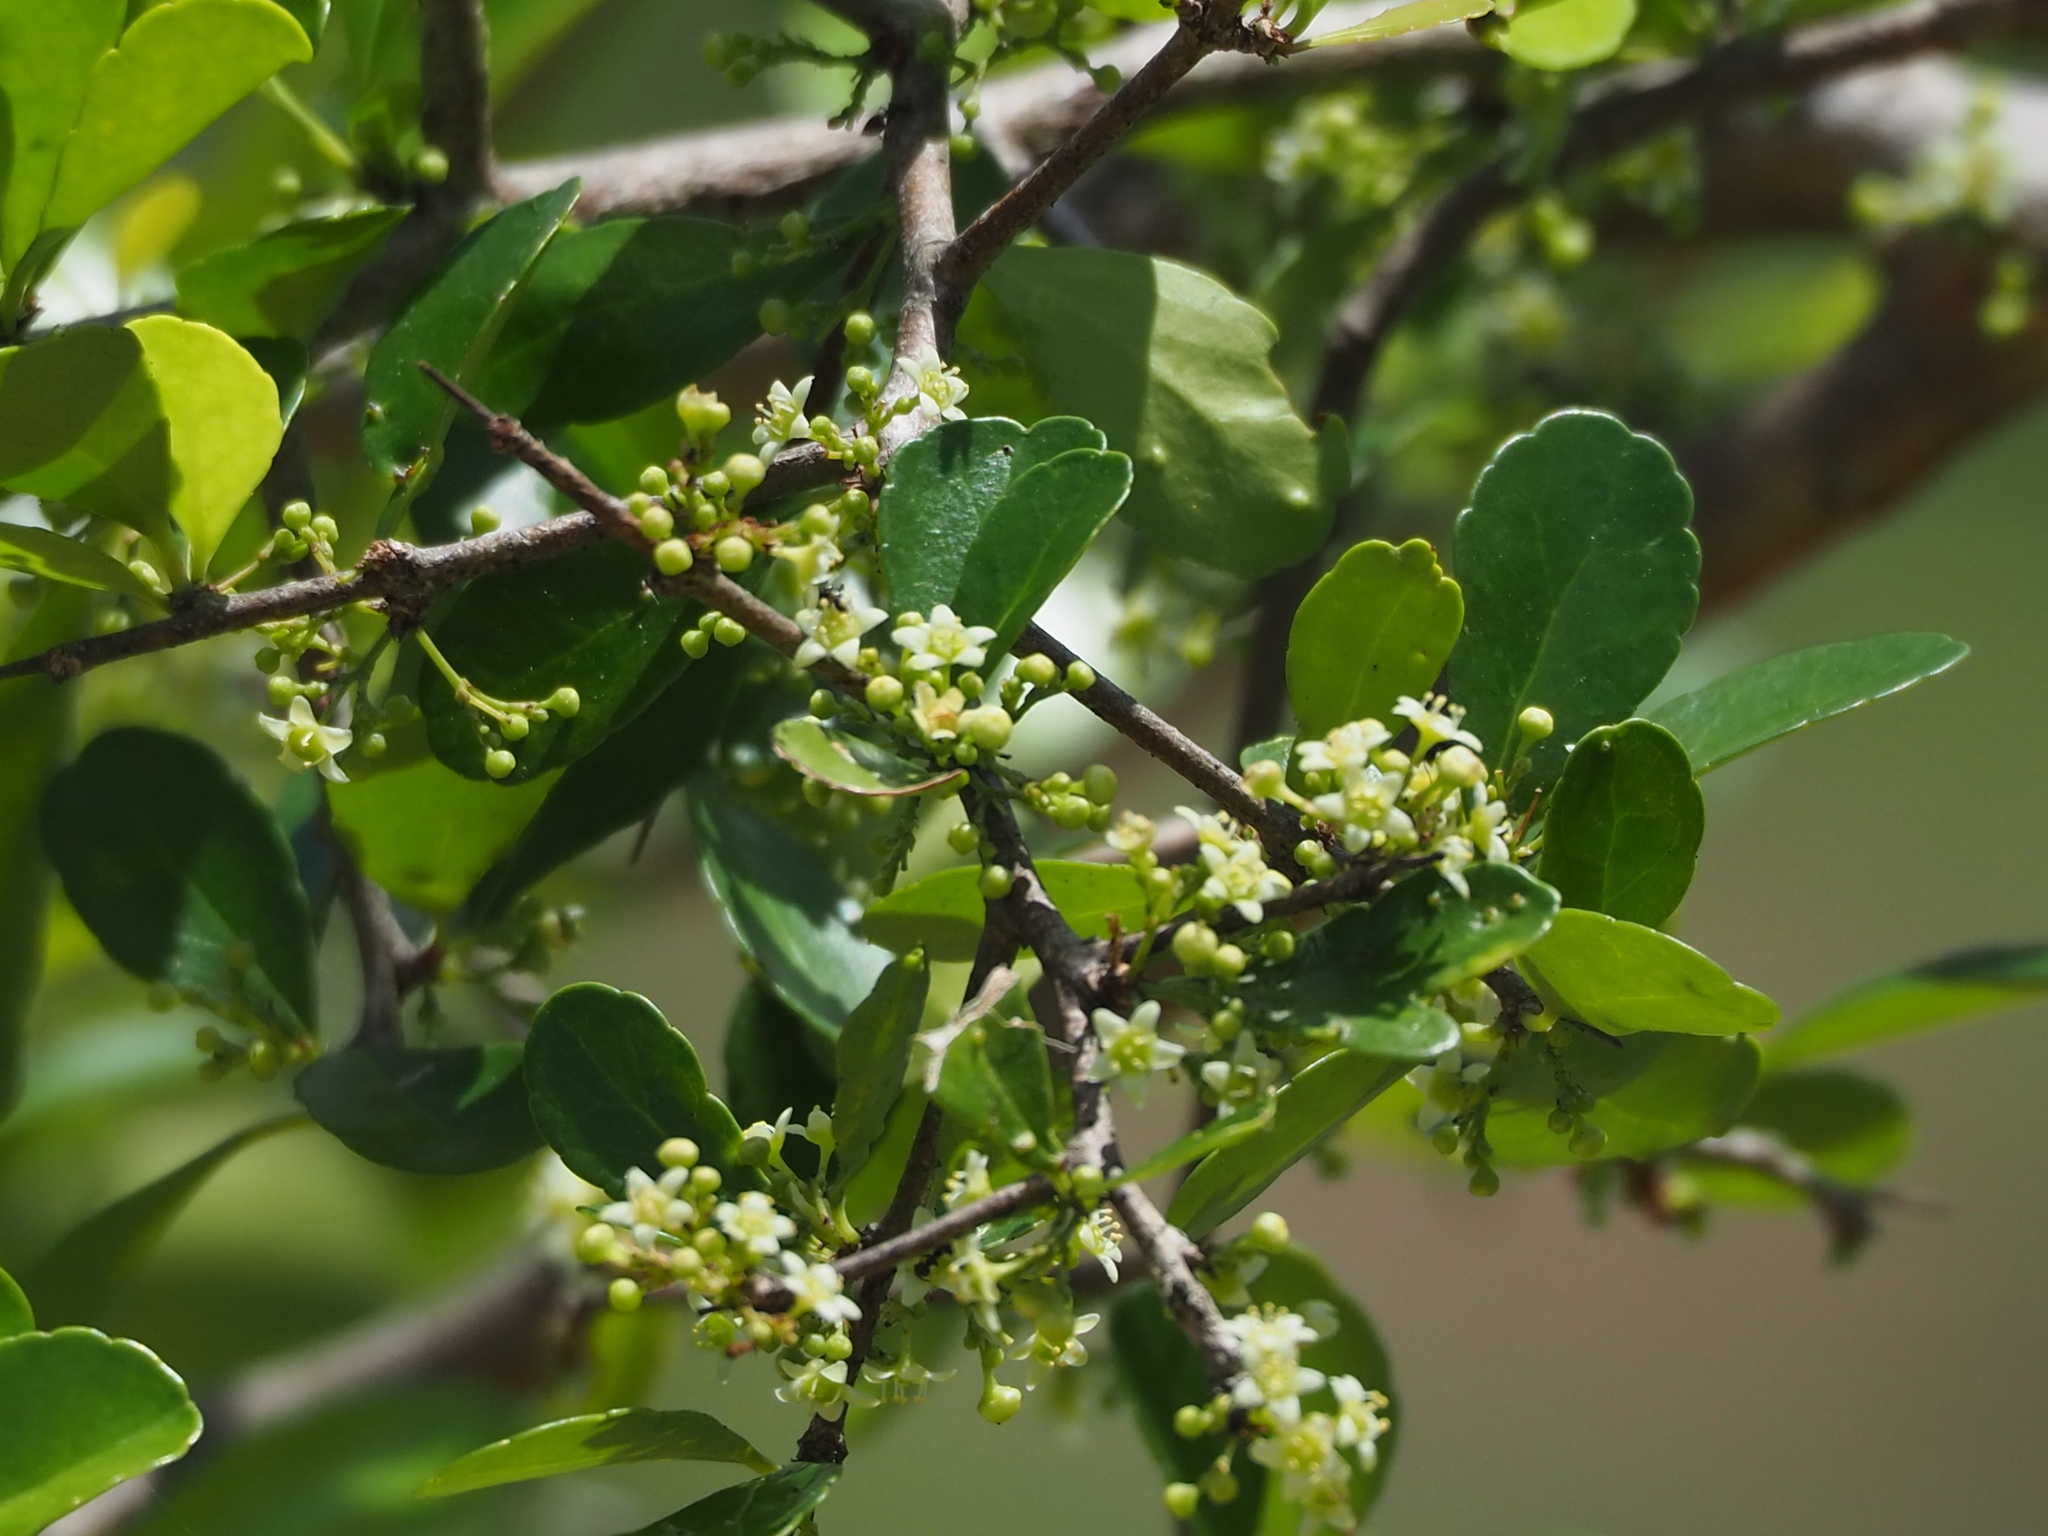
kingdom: Plantae
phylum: Tracheophyta
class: Magnoliopsida
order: Celastrales
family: Celastraceae
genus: Gymnosporia
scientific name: Gymnosporia diversifolia
